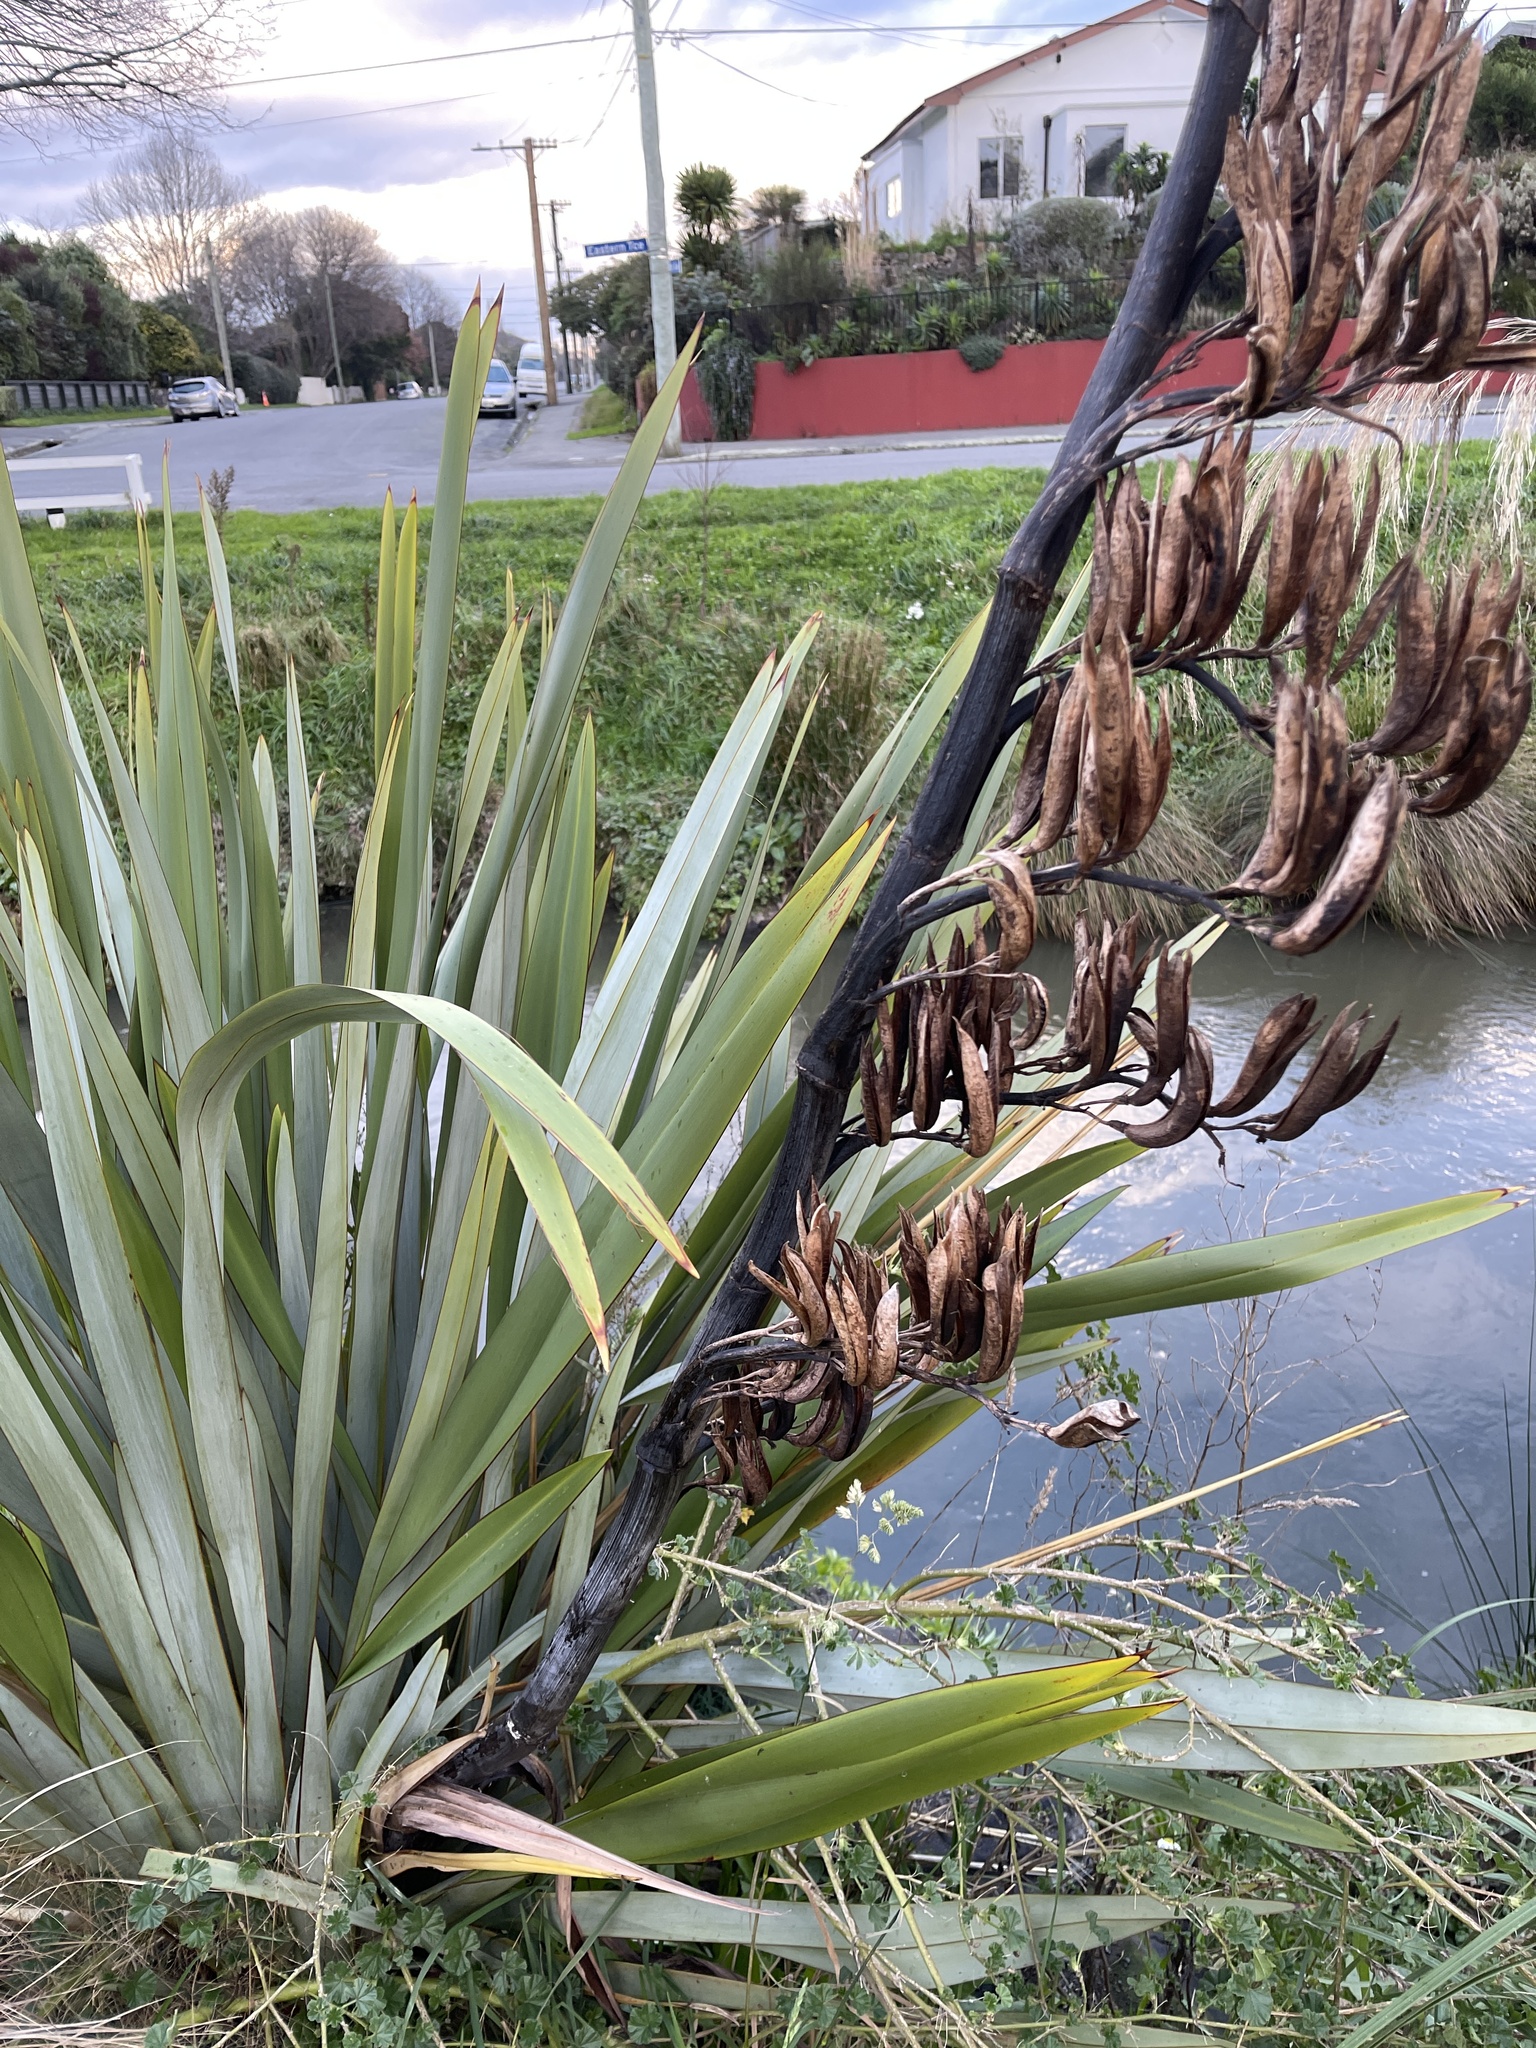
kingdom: Plantae
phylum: Tracheophyta
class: Liliopsida
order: Asparagales
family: Asphodelaceae
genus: Phormium
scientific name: Phormium tenax
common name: New zealand flax
